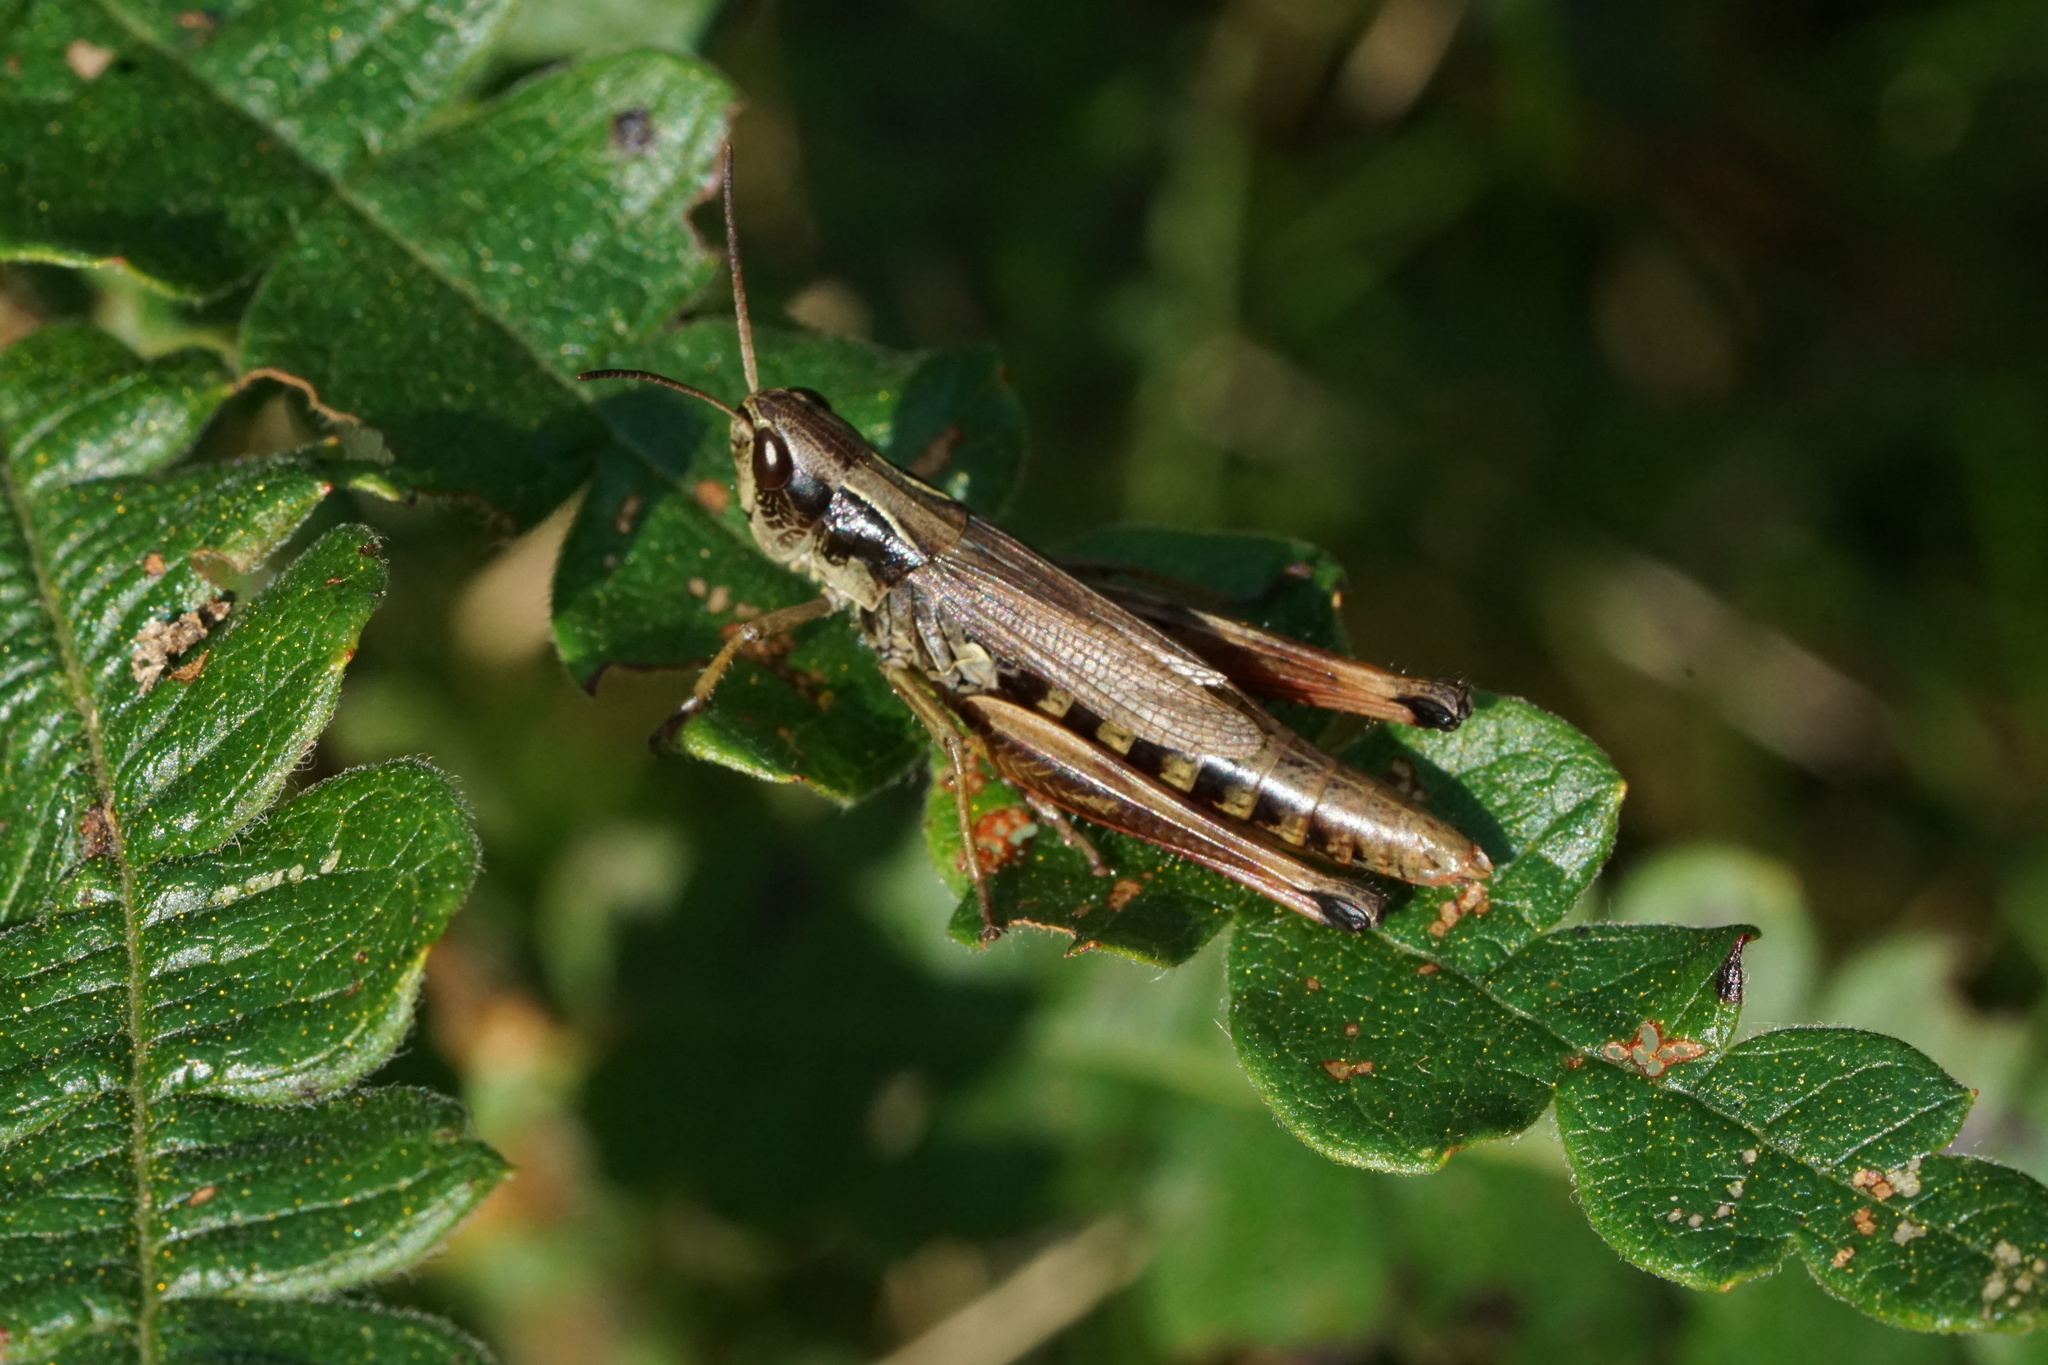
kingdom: Animalia
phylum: Arthropoda
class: Insecta
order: Orthoptera
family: Acrididae
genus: Pseudochorthippus
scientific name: Pseudochorthippus curtipennis
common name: Marsh meadow grasshopper
